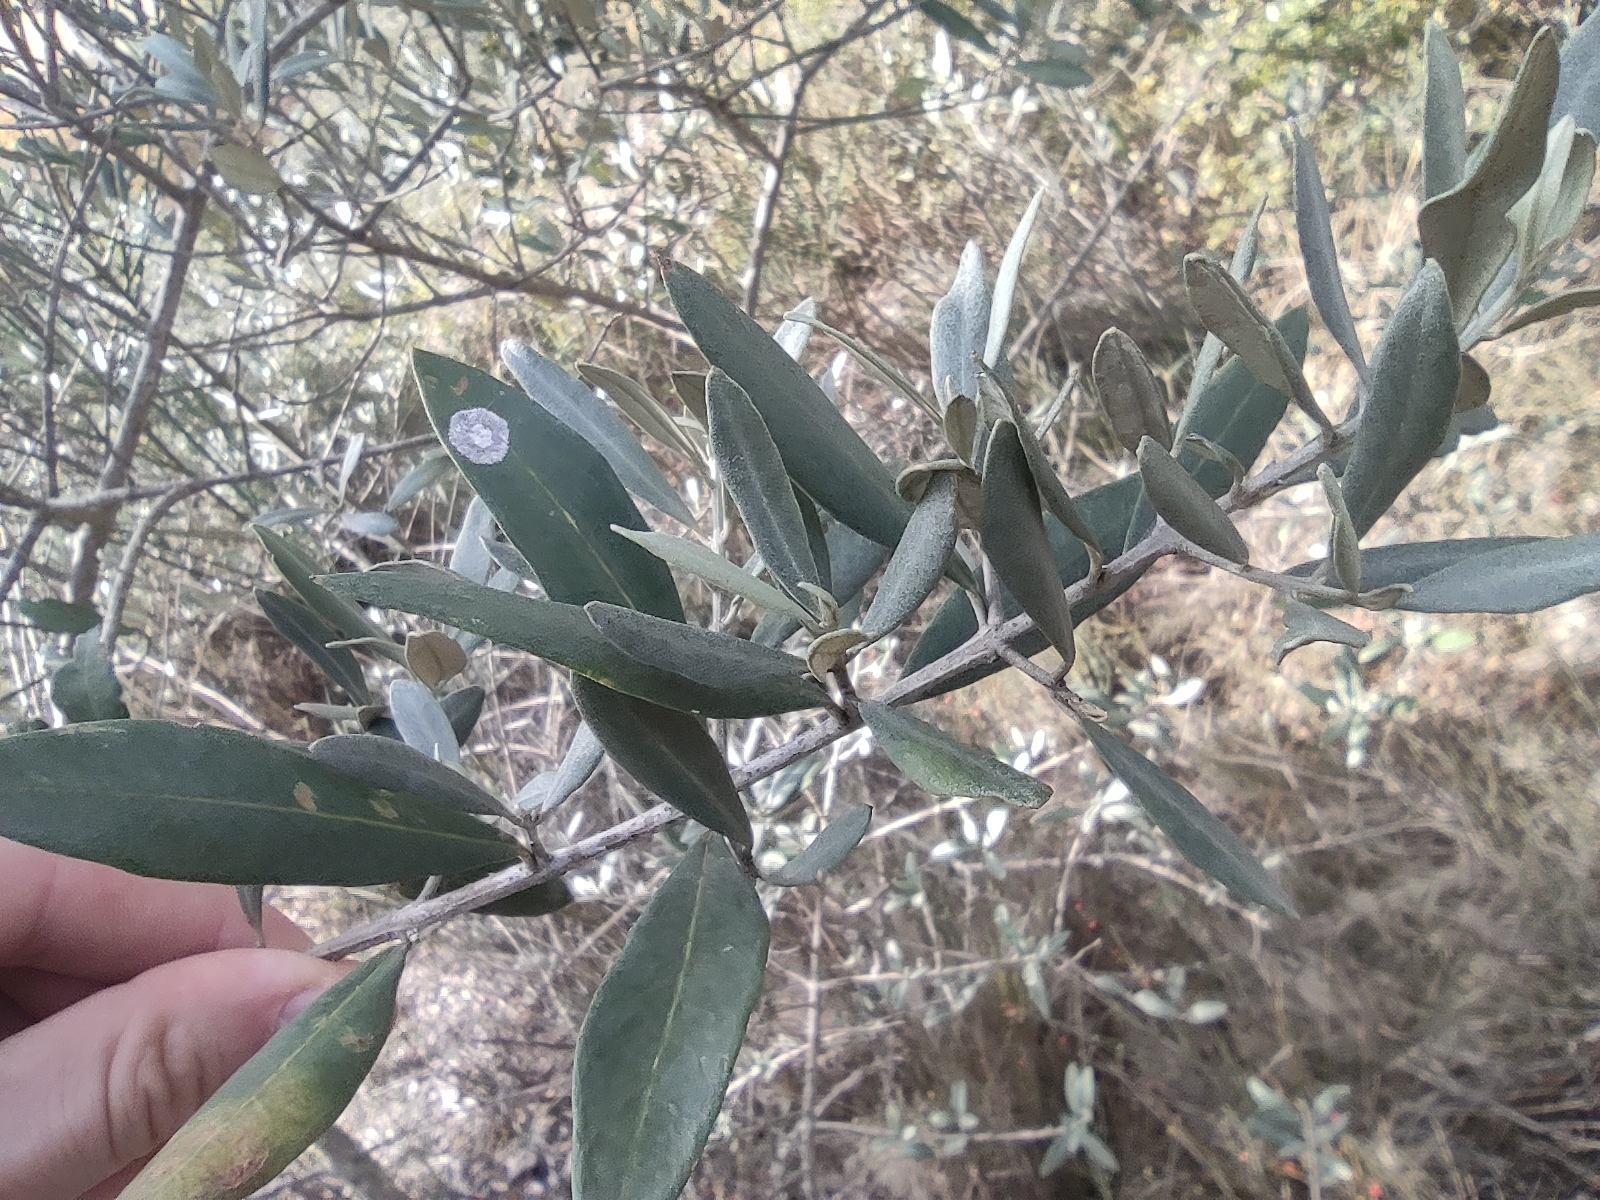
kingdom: Plantae
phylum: Tracheophyta
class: Magnoliopsida
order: Lamiales
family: Oleaceae
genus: Olea
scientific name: Olea europaea
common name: Olive
